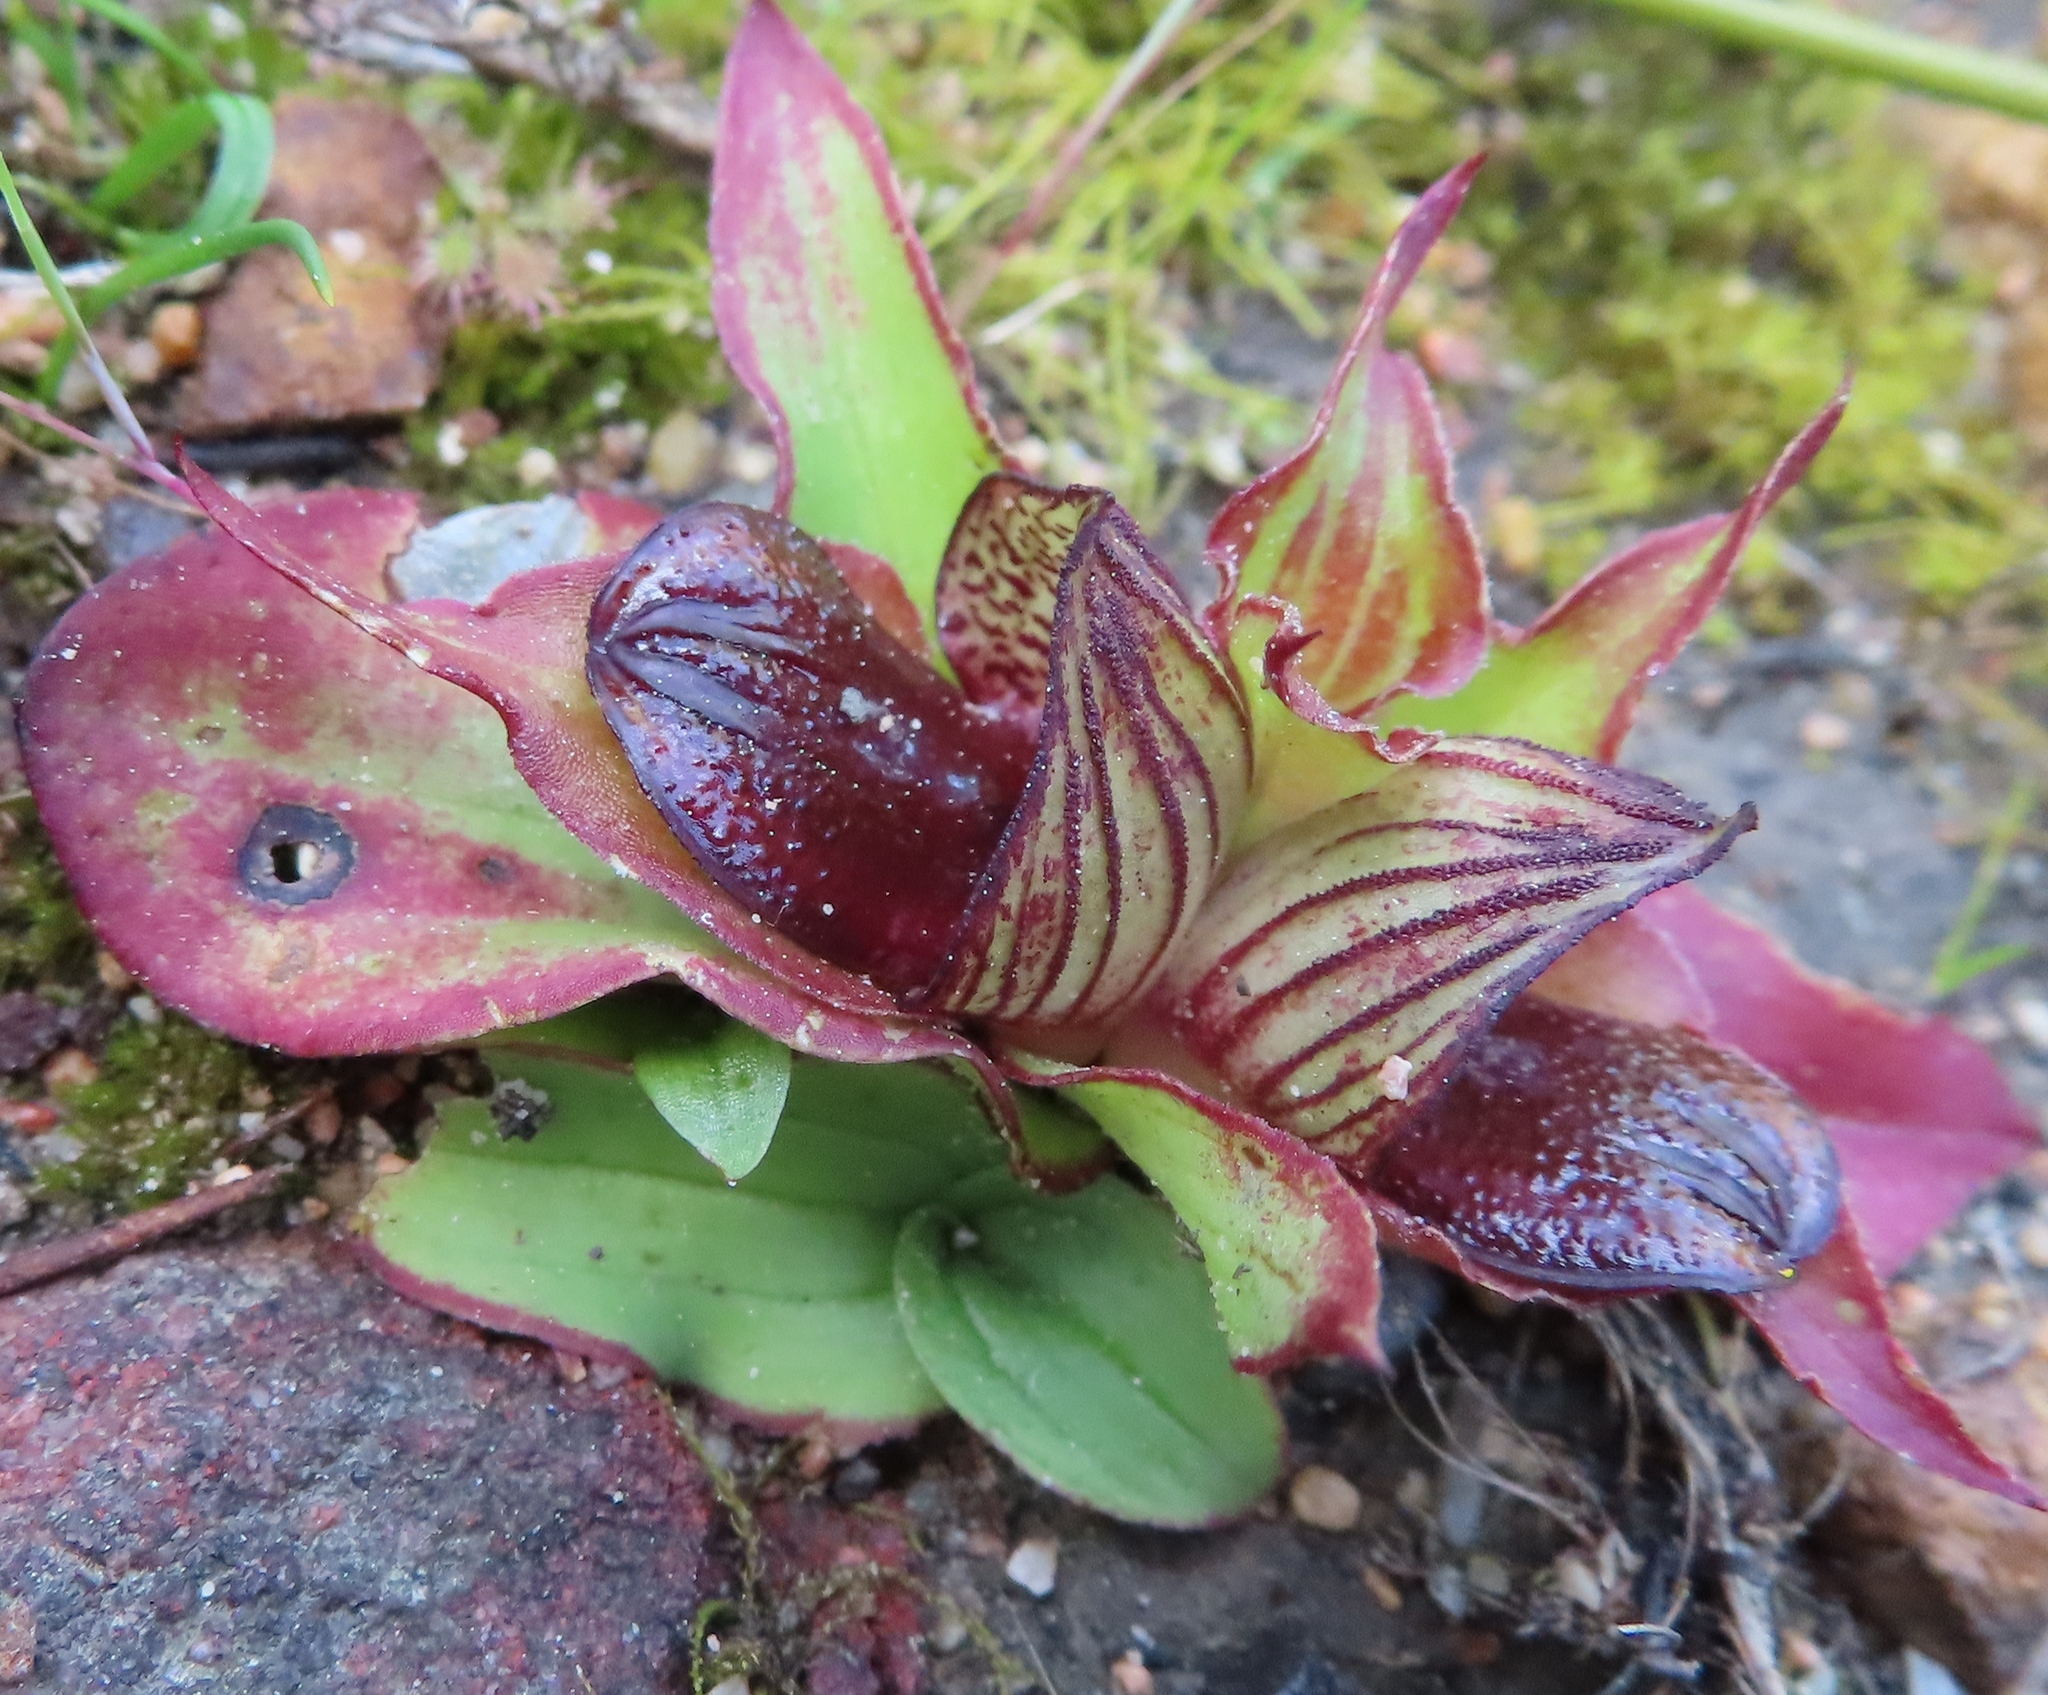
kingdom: Plantae
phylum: Tracheophyta
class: Liliopsida
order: Asparagales
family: Orchidaceae
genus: Satyrium
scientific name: Satyrium pumilum
